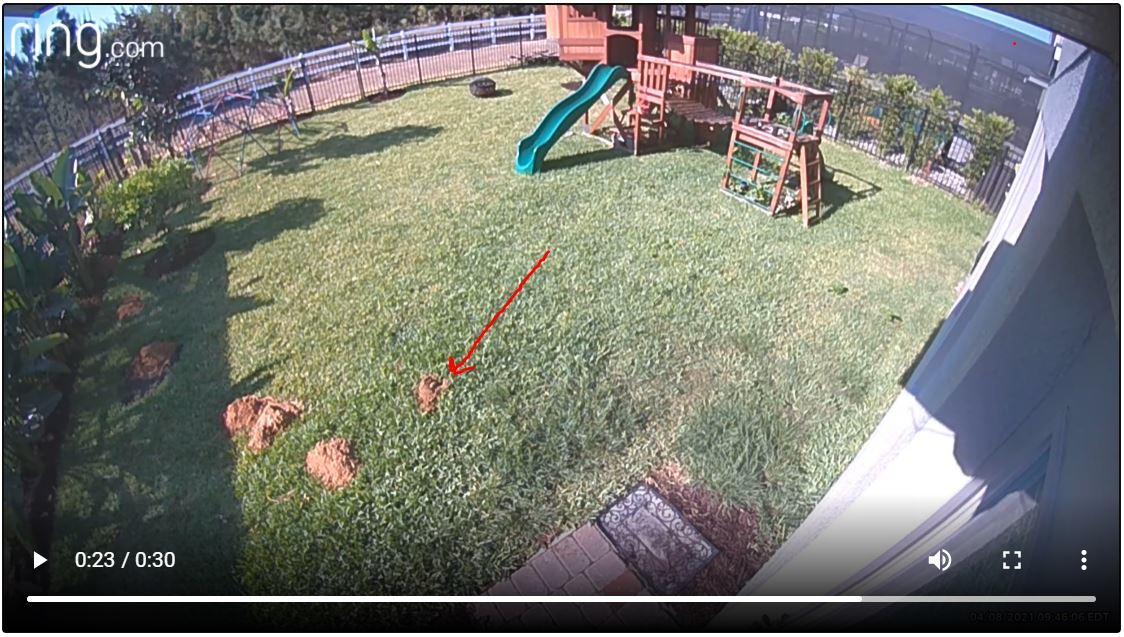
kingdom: Animalia
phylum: Chordata
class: Mammalia
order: Rodentia
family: Geomyidae
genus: Geomys
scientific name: Geomys pinetis
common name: Southeastern pocket gopher
